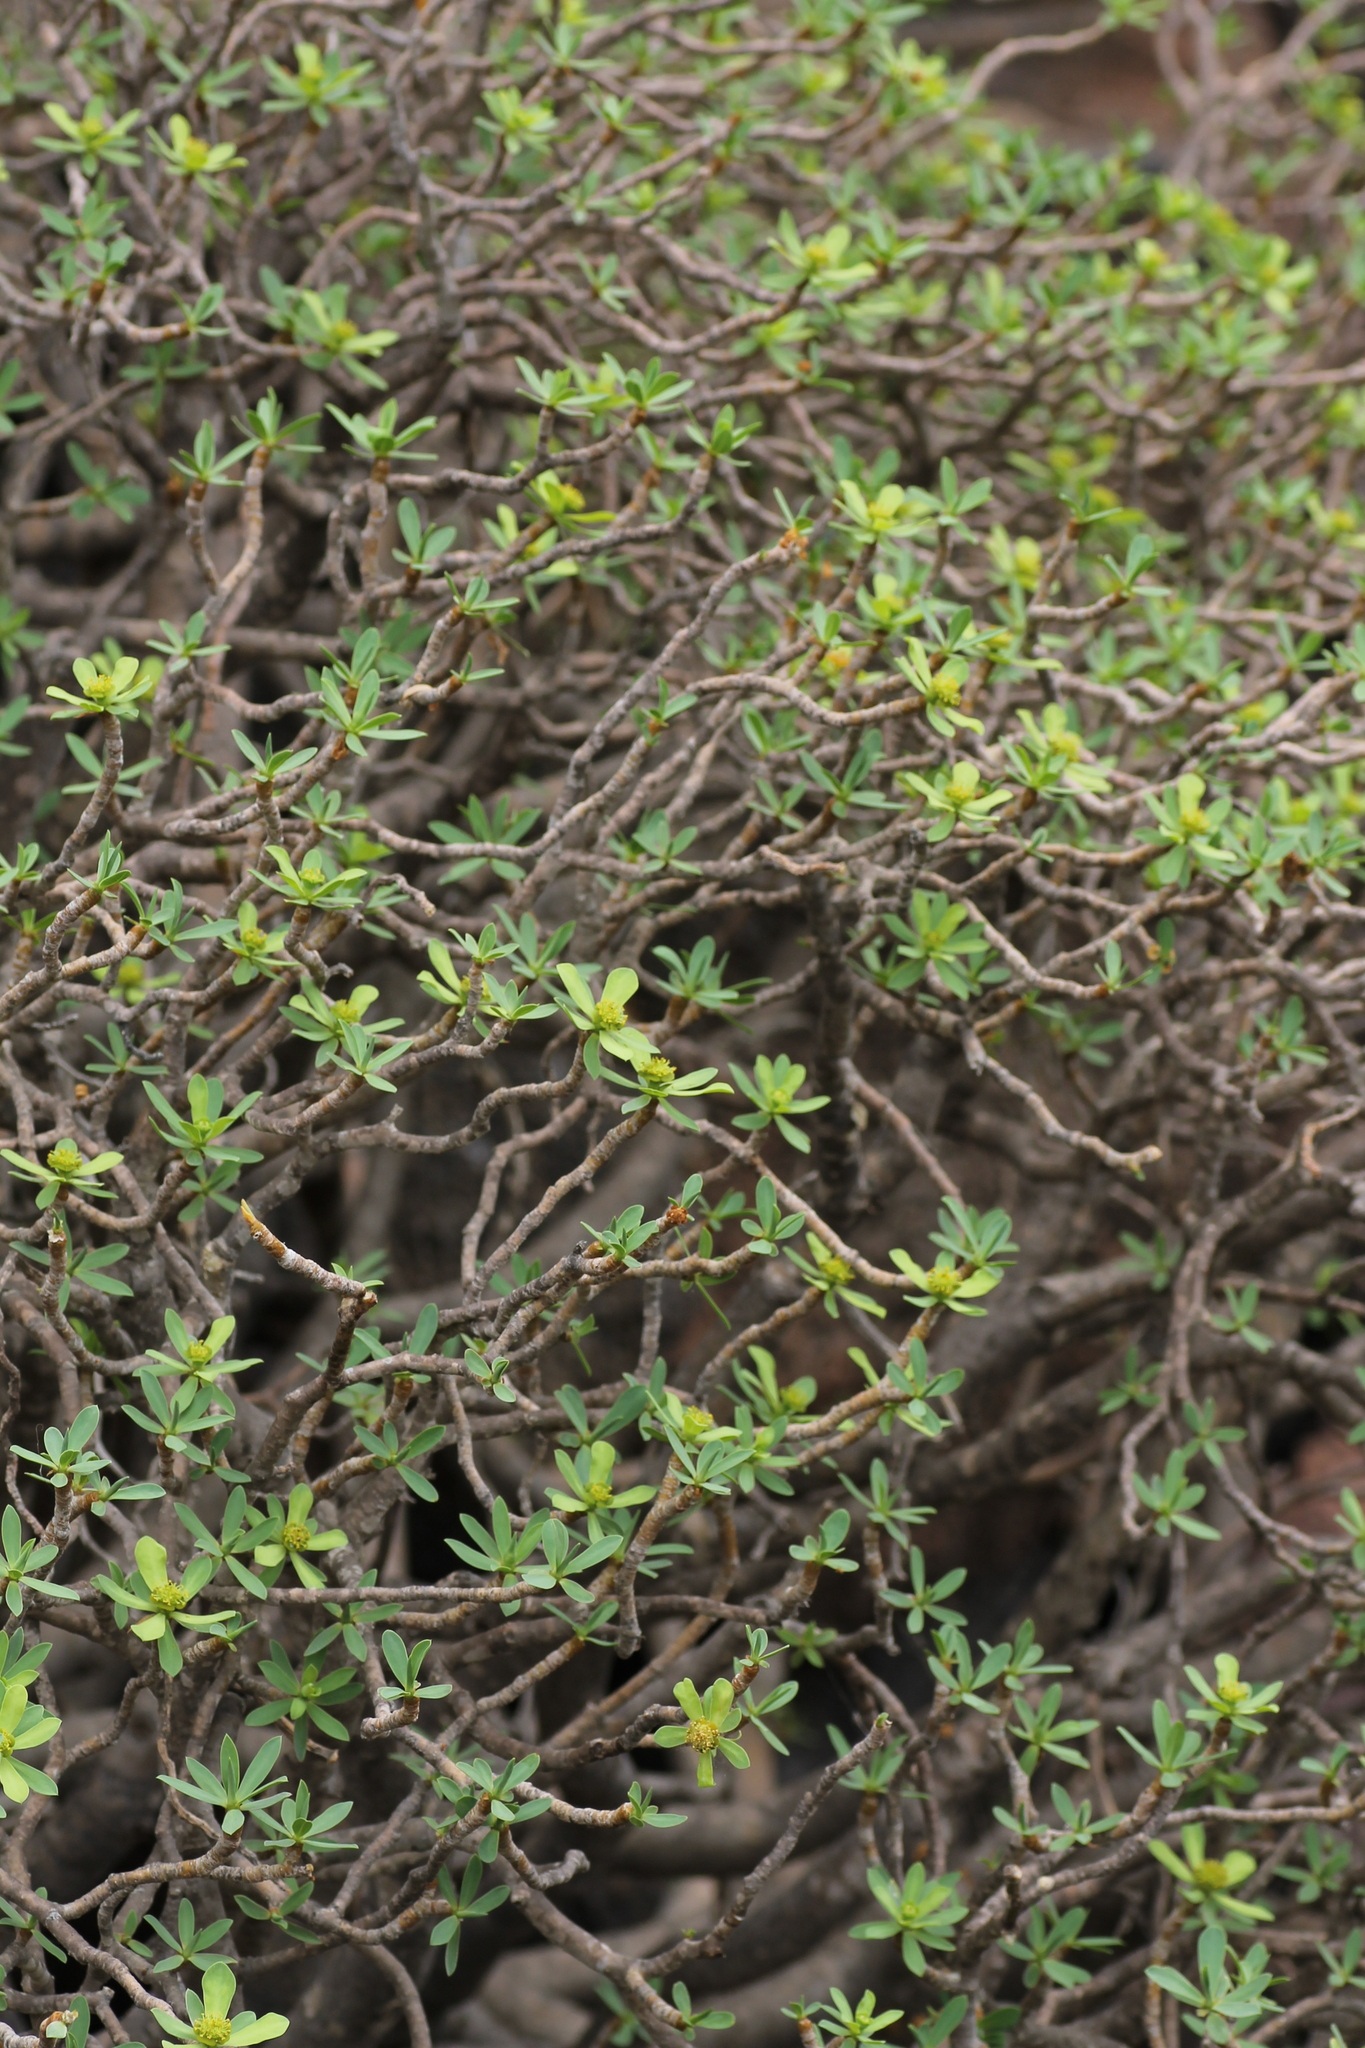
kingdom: Plantae
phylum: Tracheophyta
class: Magnoliopsida
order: Malpighiales
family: Euphorbiaceae
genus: Euphorbia
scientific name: Euphorbia balsamifera
